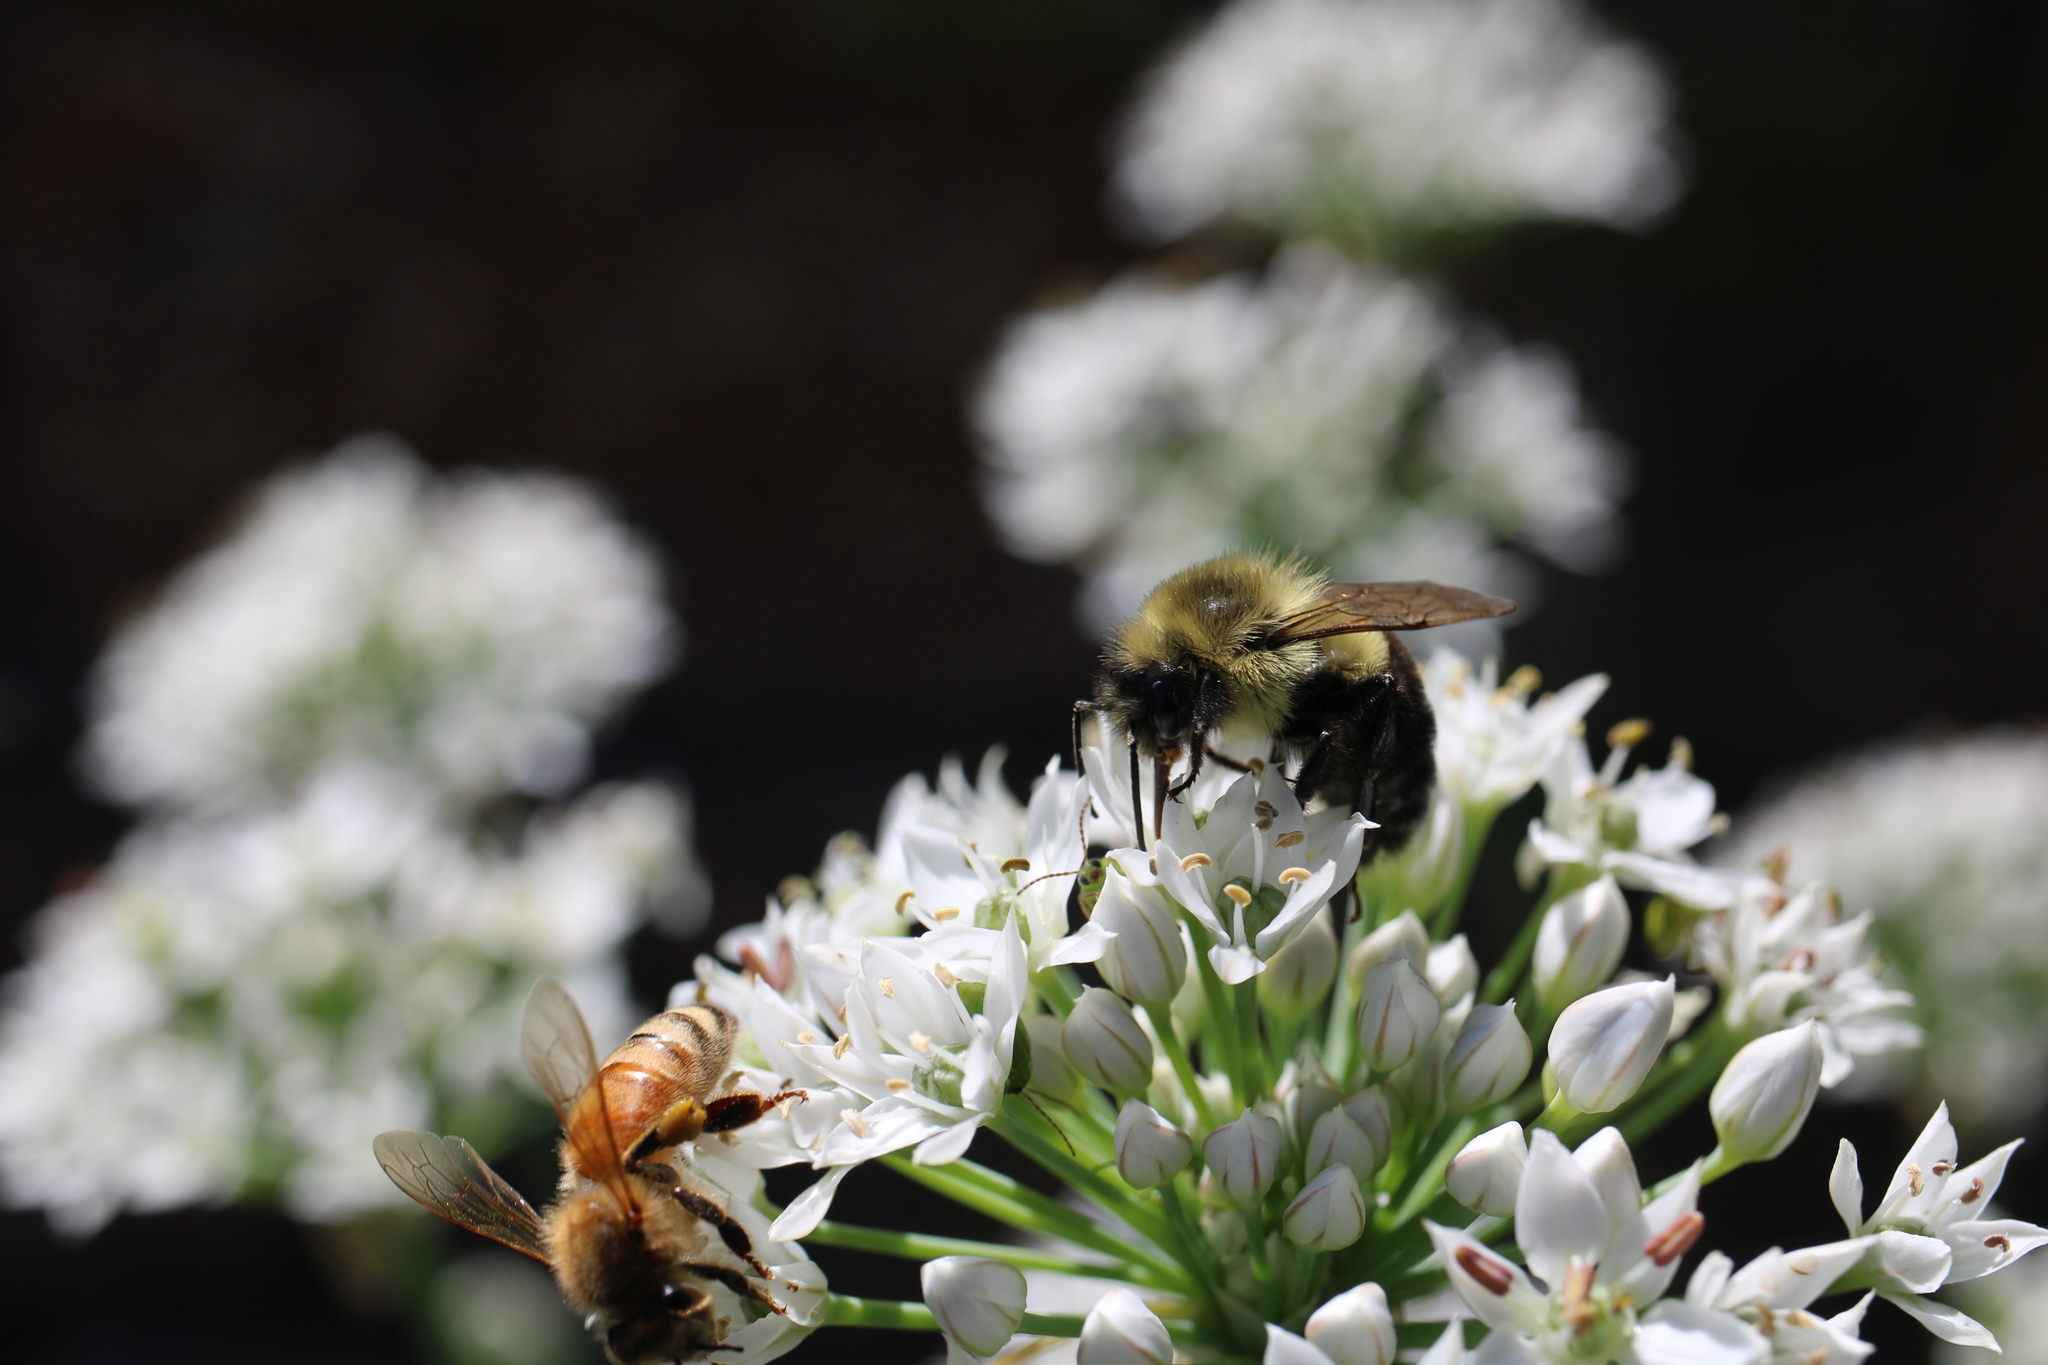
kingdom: Animalia
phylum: Arthropoda
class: Insecta
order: Hymenoptera
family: Apidae
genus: Bombus
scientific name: Bombus impatiens
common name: Common eastern bumble bee
